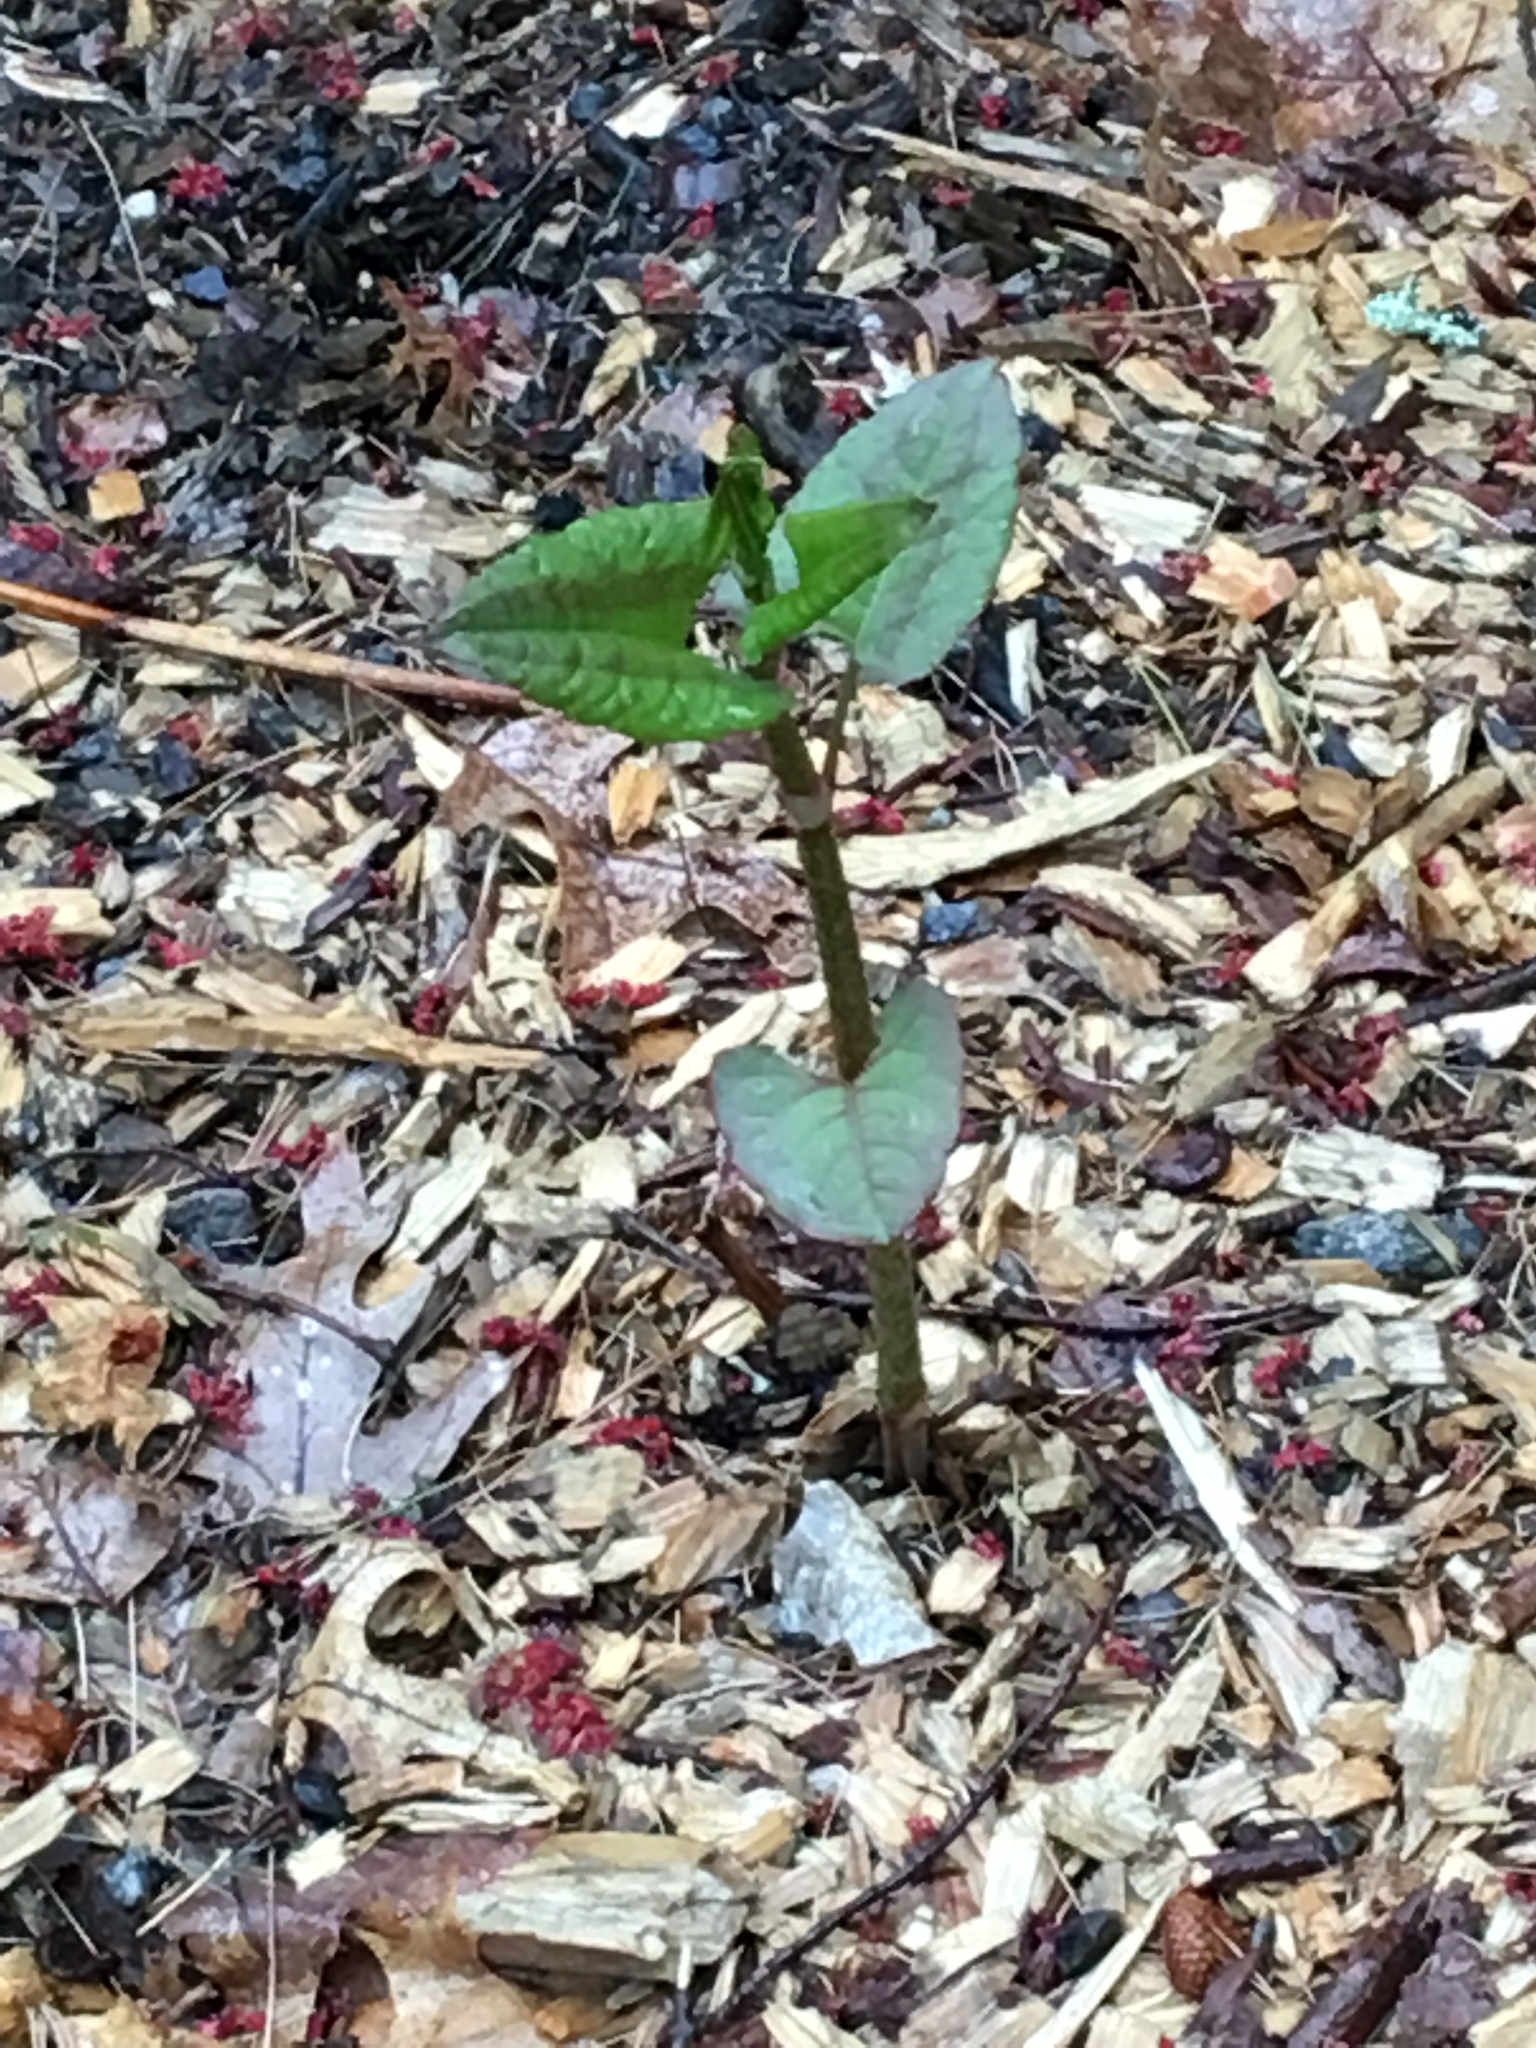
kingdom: Plantae
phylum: Tracheophyta
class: Magnoliopsida
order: Caryophyllales
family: Polygonaceae
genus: Reynoutria
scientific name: Reynoutria japonica
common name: Japanese knotweed
